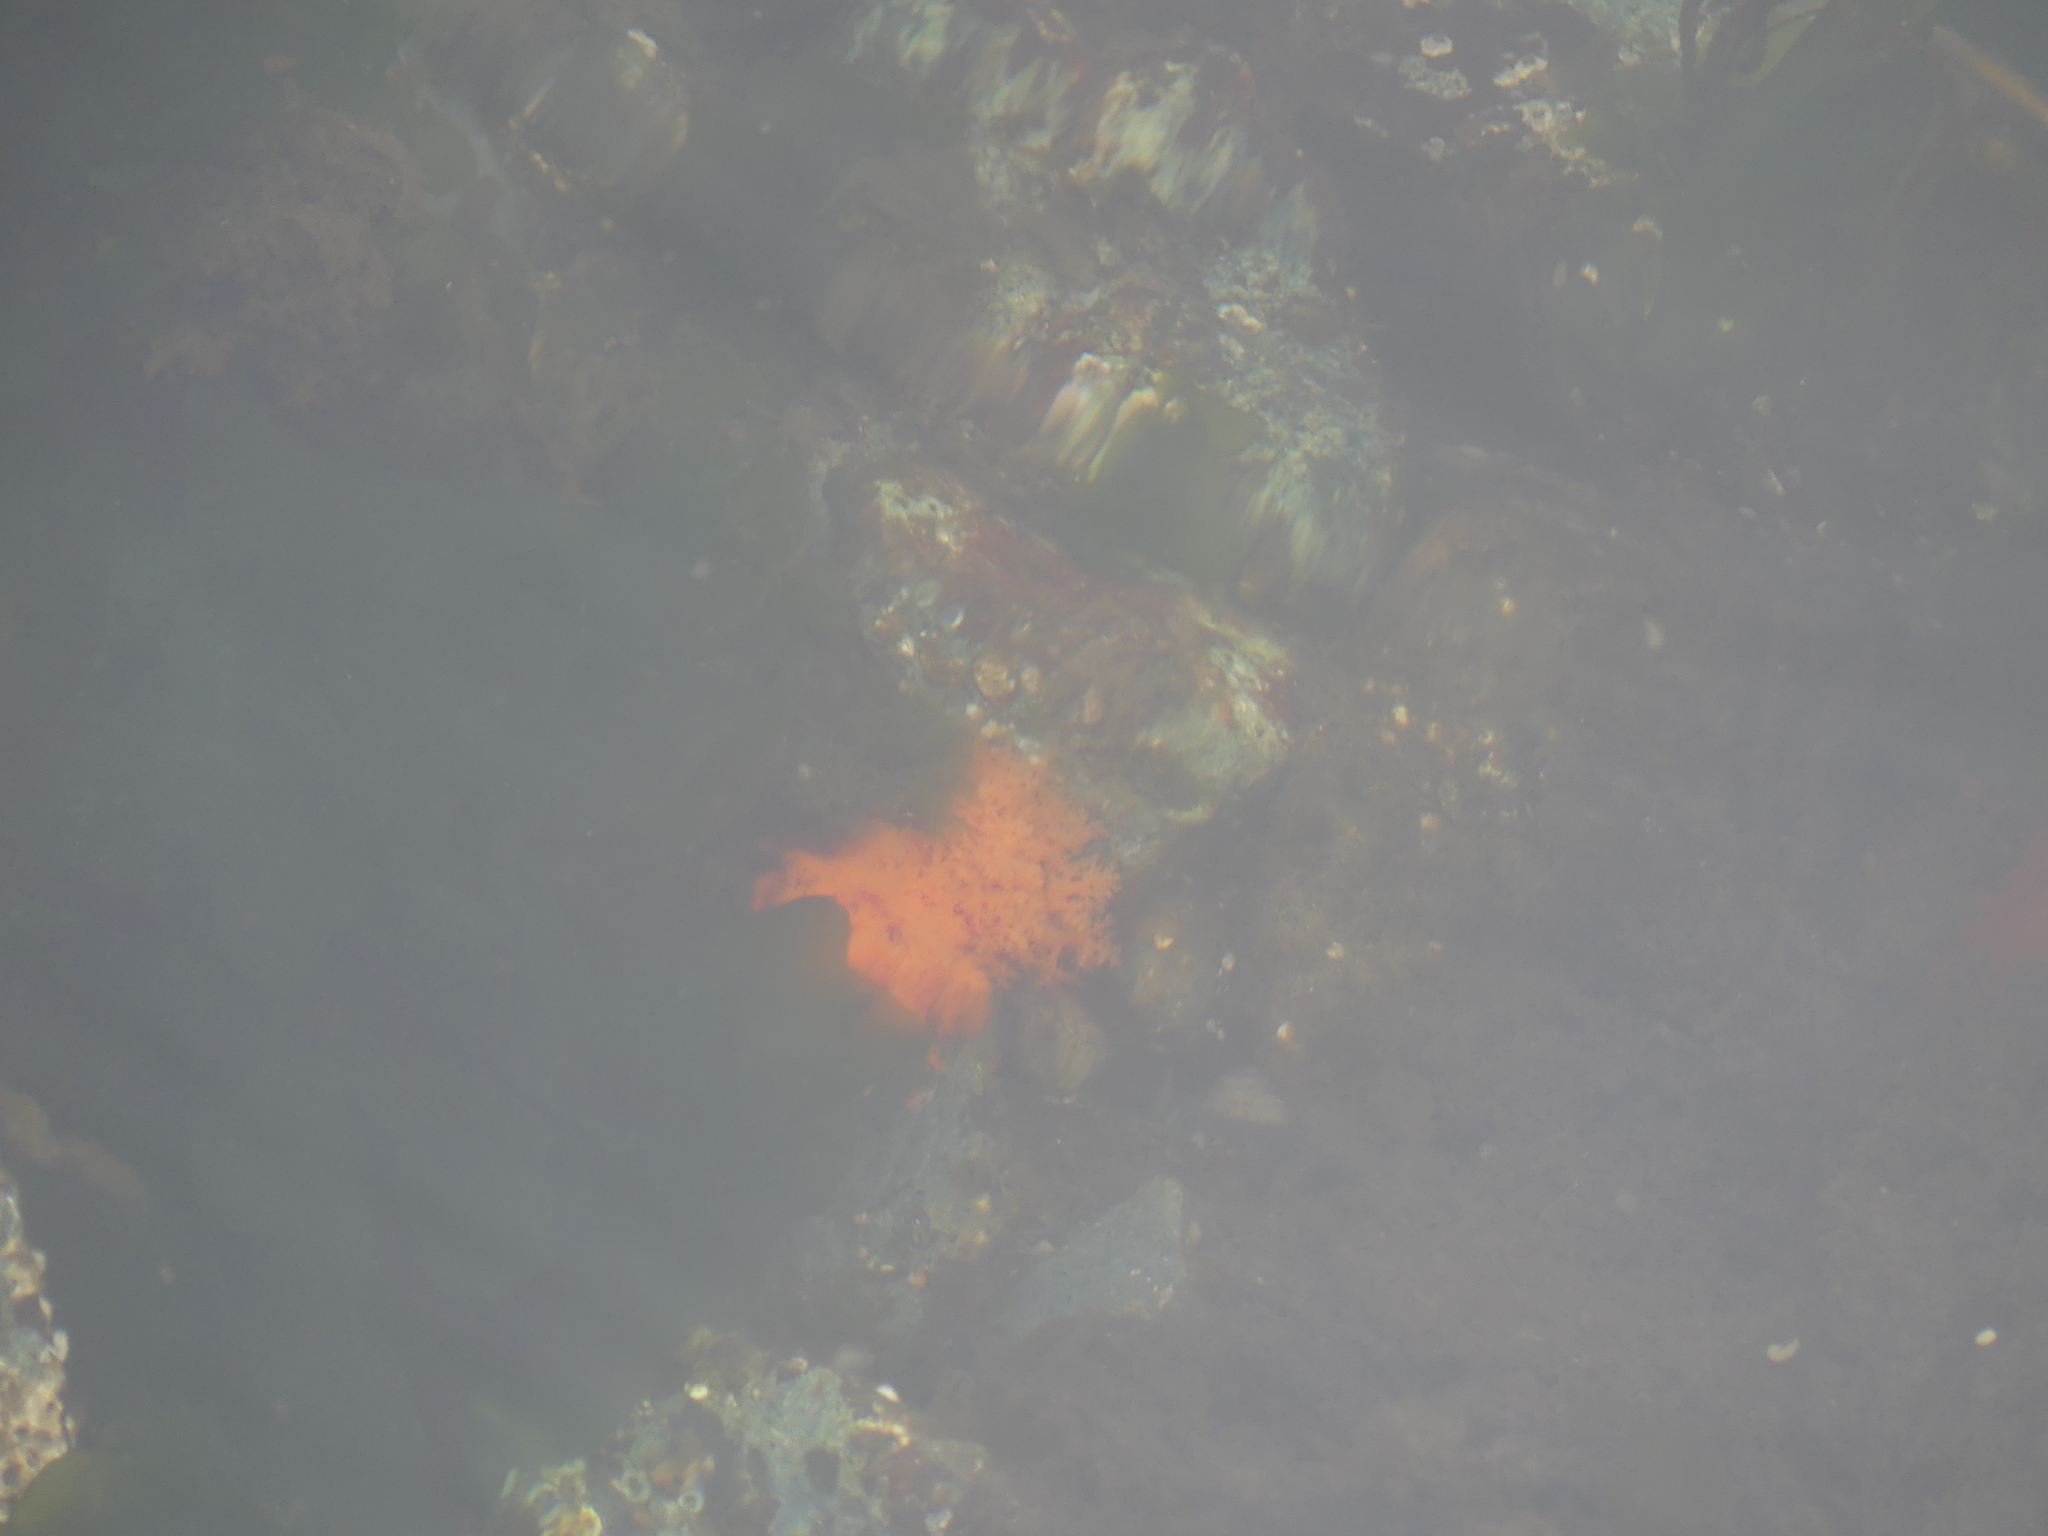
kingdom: Animalia
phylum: Echinodermata
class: Holothuroidea
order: Dendrochirotida
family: Cucumariidae
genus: Cucumaria
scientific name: Cucumaria miniata
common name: Orange sea cucumber
